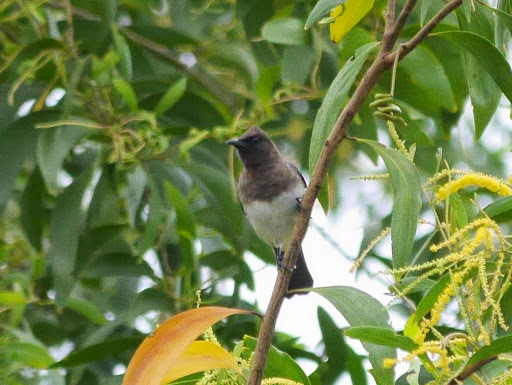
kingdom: Animalia
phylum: Chordata
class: Aves
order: Passeriformes
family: Pycnonotidae
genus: Pycnonotus
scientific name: Pycnonotus barbatus
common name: Common bulbul
